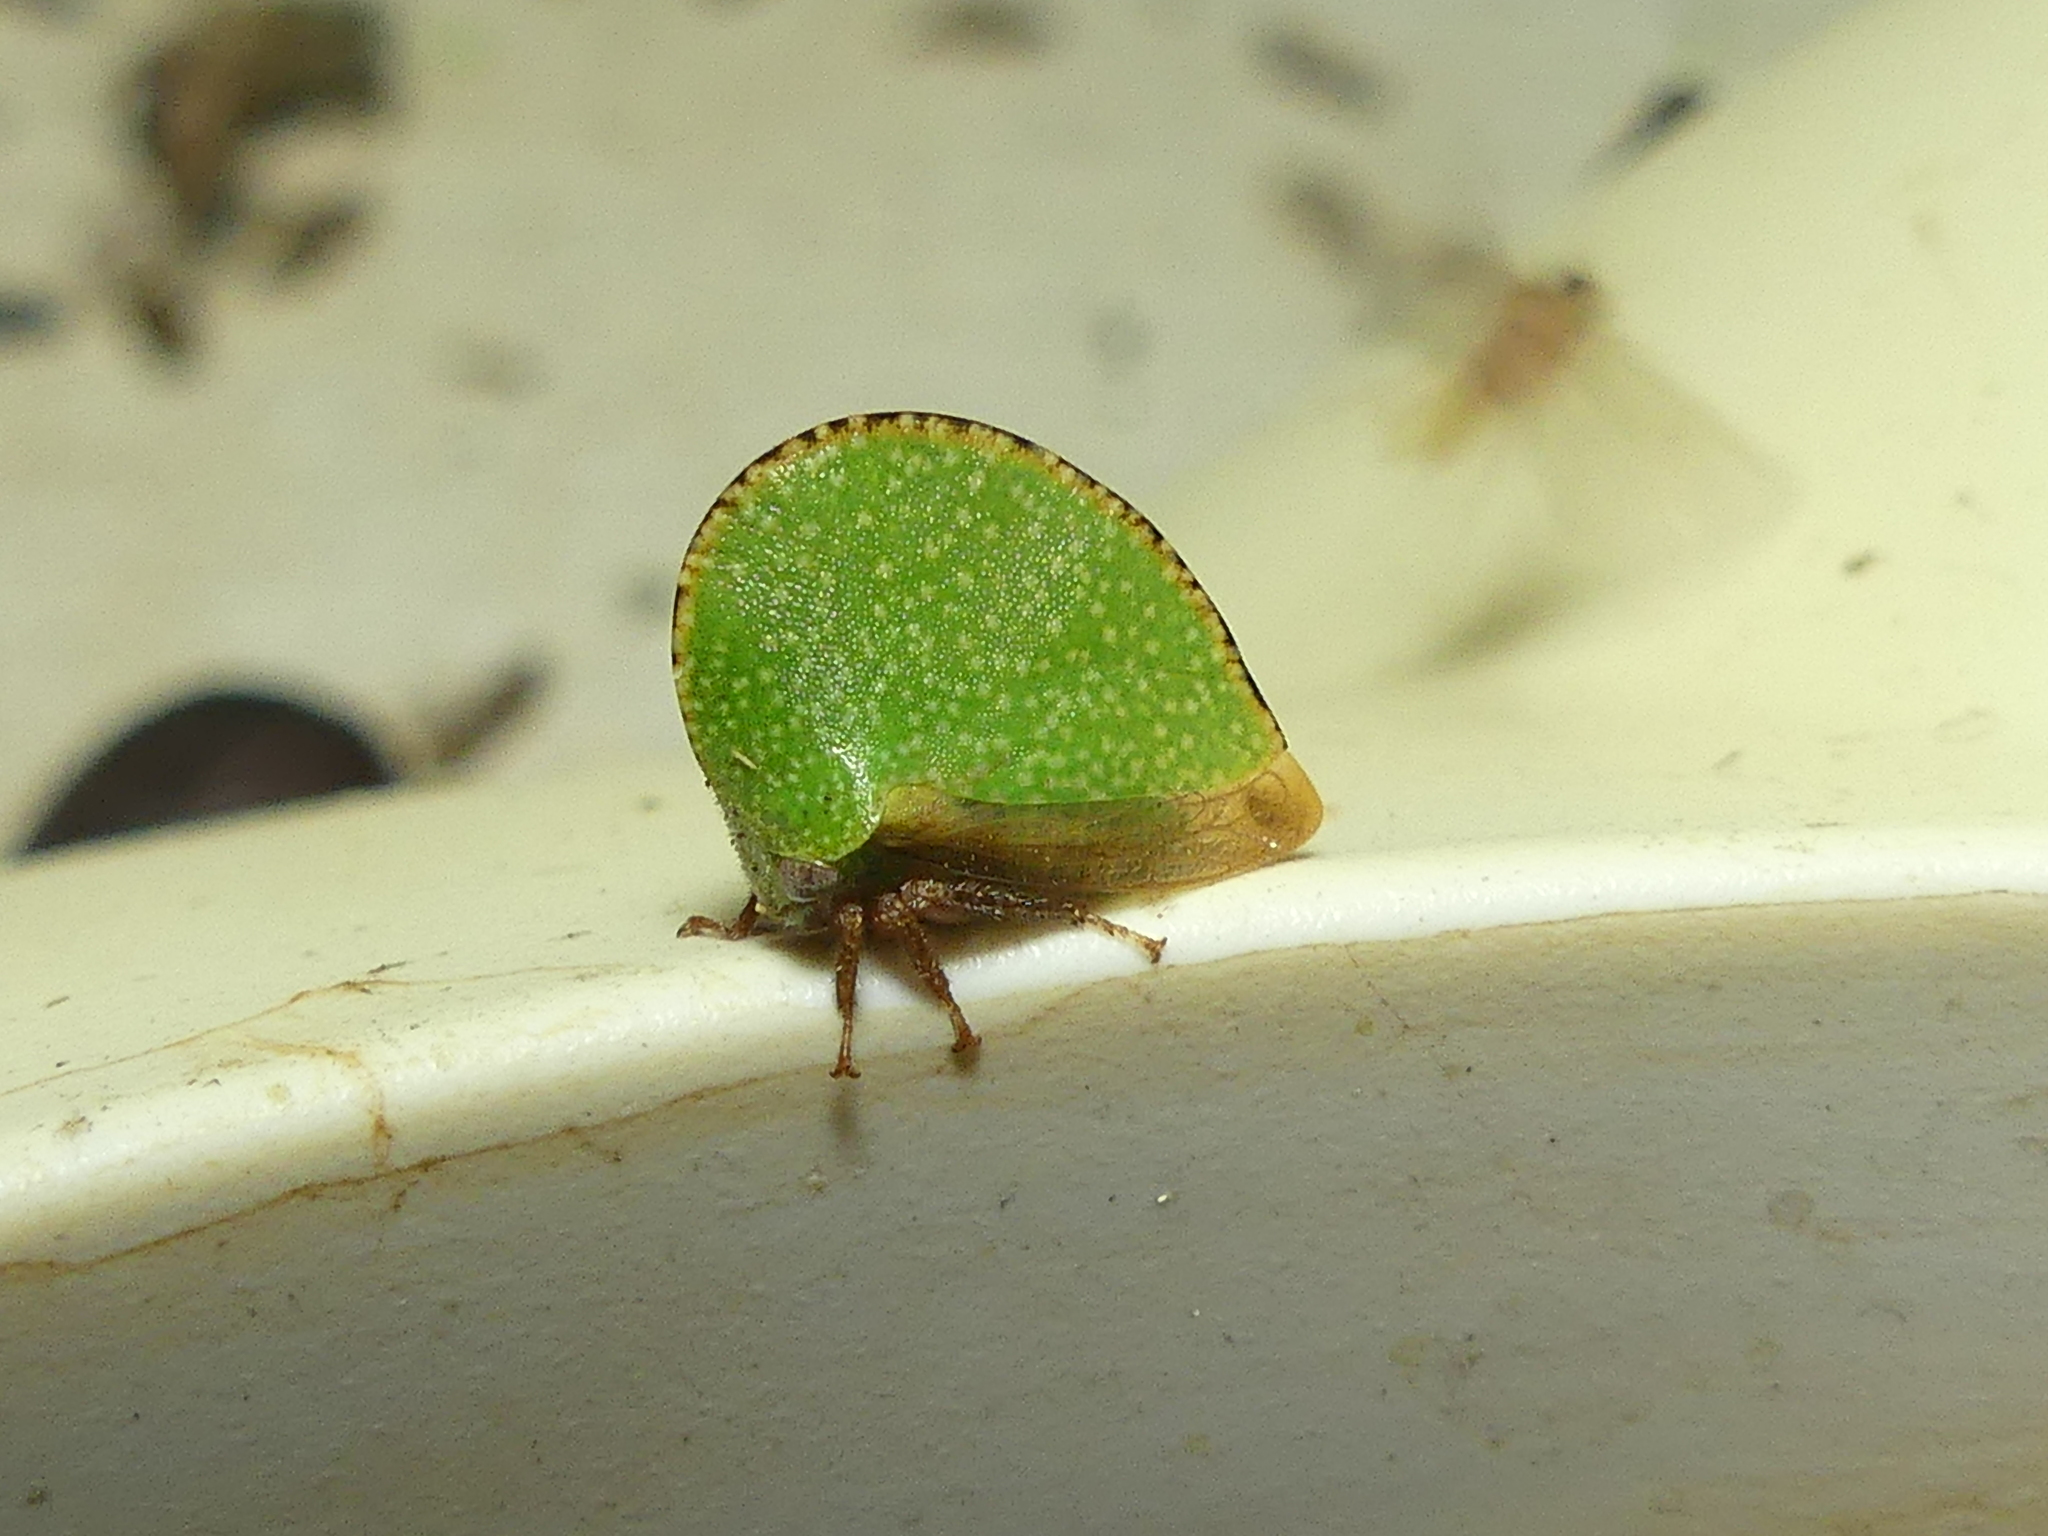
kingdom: Animalia
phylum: Arthropoda
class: Insecta
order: Hemiptera
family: Membracidae
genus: Archasia
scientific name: Archasia auriculata
